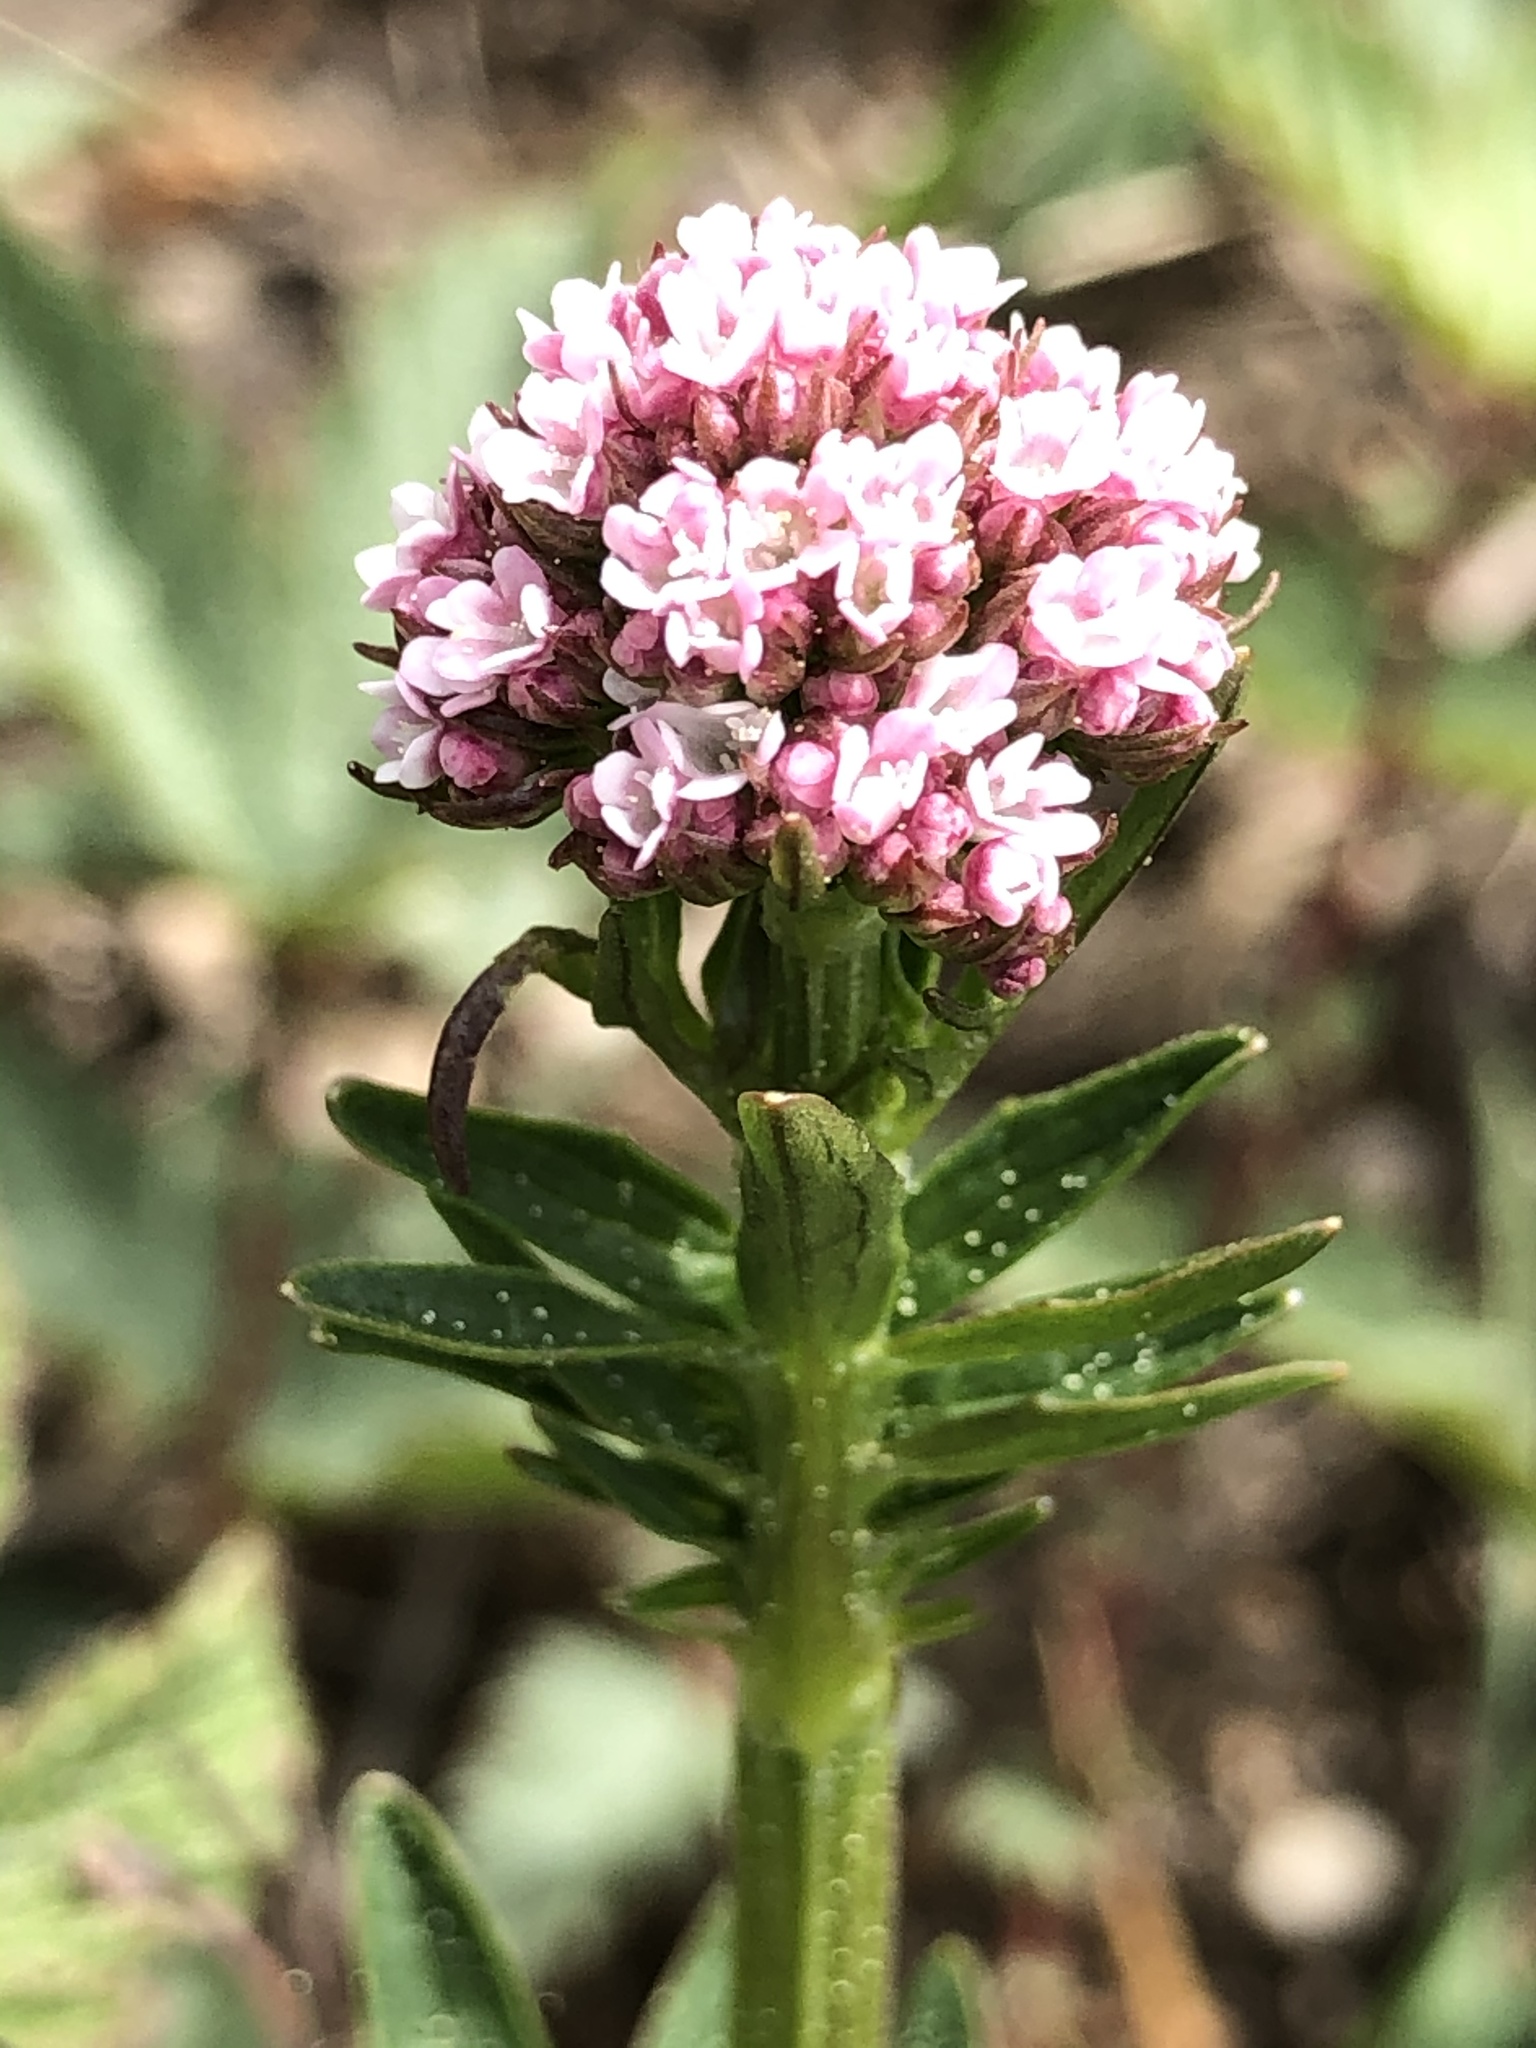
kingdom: Plantae
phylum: Tracheophyta
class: Magnoliopsida
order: Dipsacales
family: Caprifoliaceae
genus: Valeriana
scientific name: Valeriana dioica
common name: Marsh valerian
